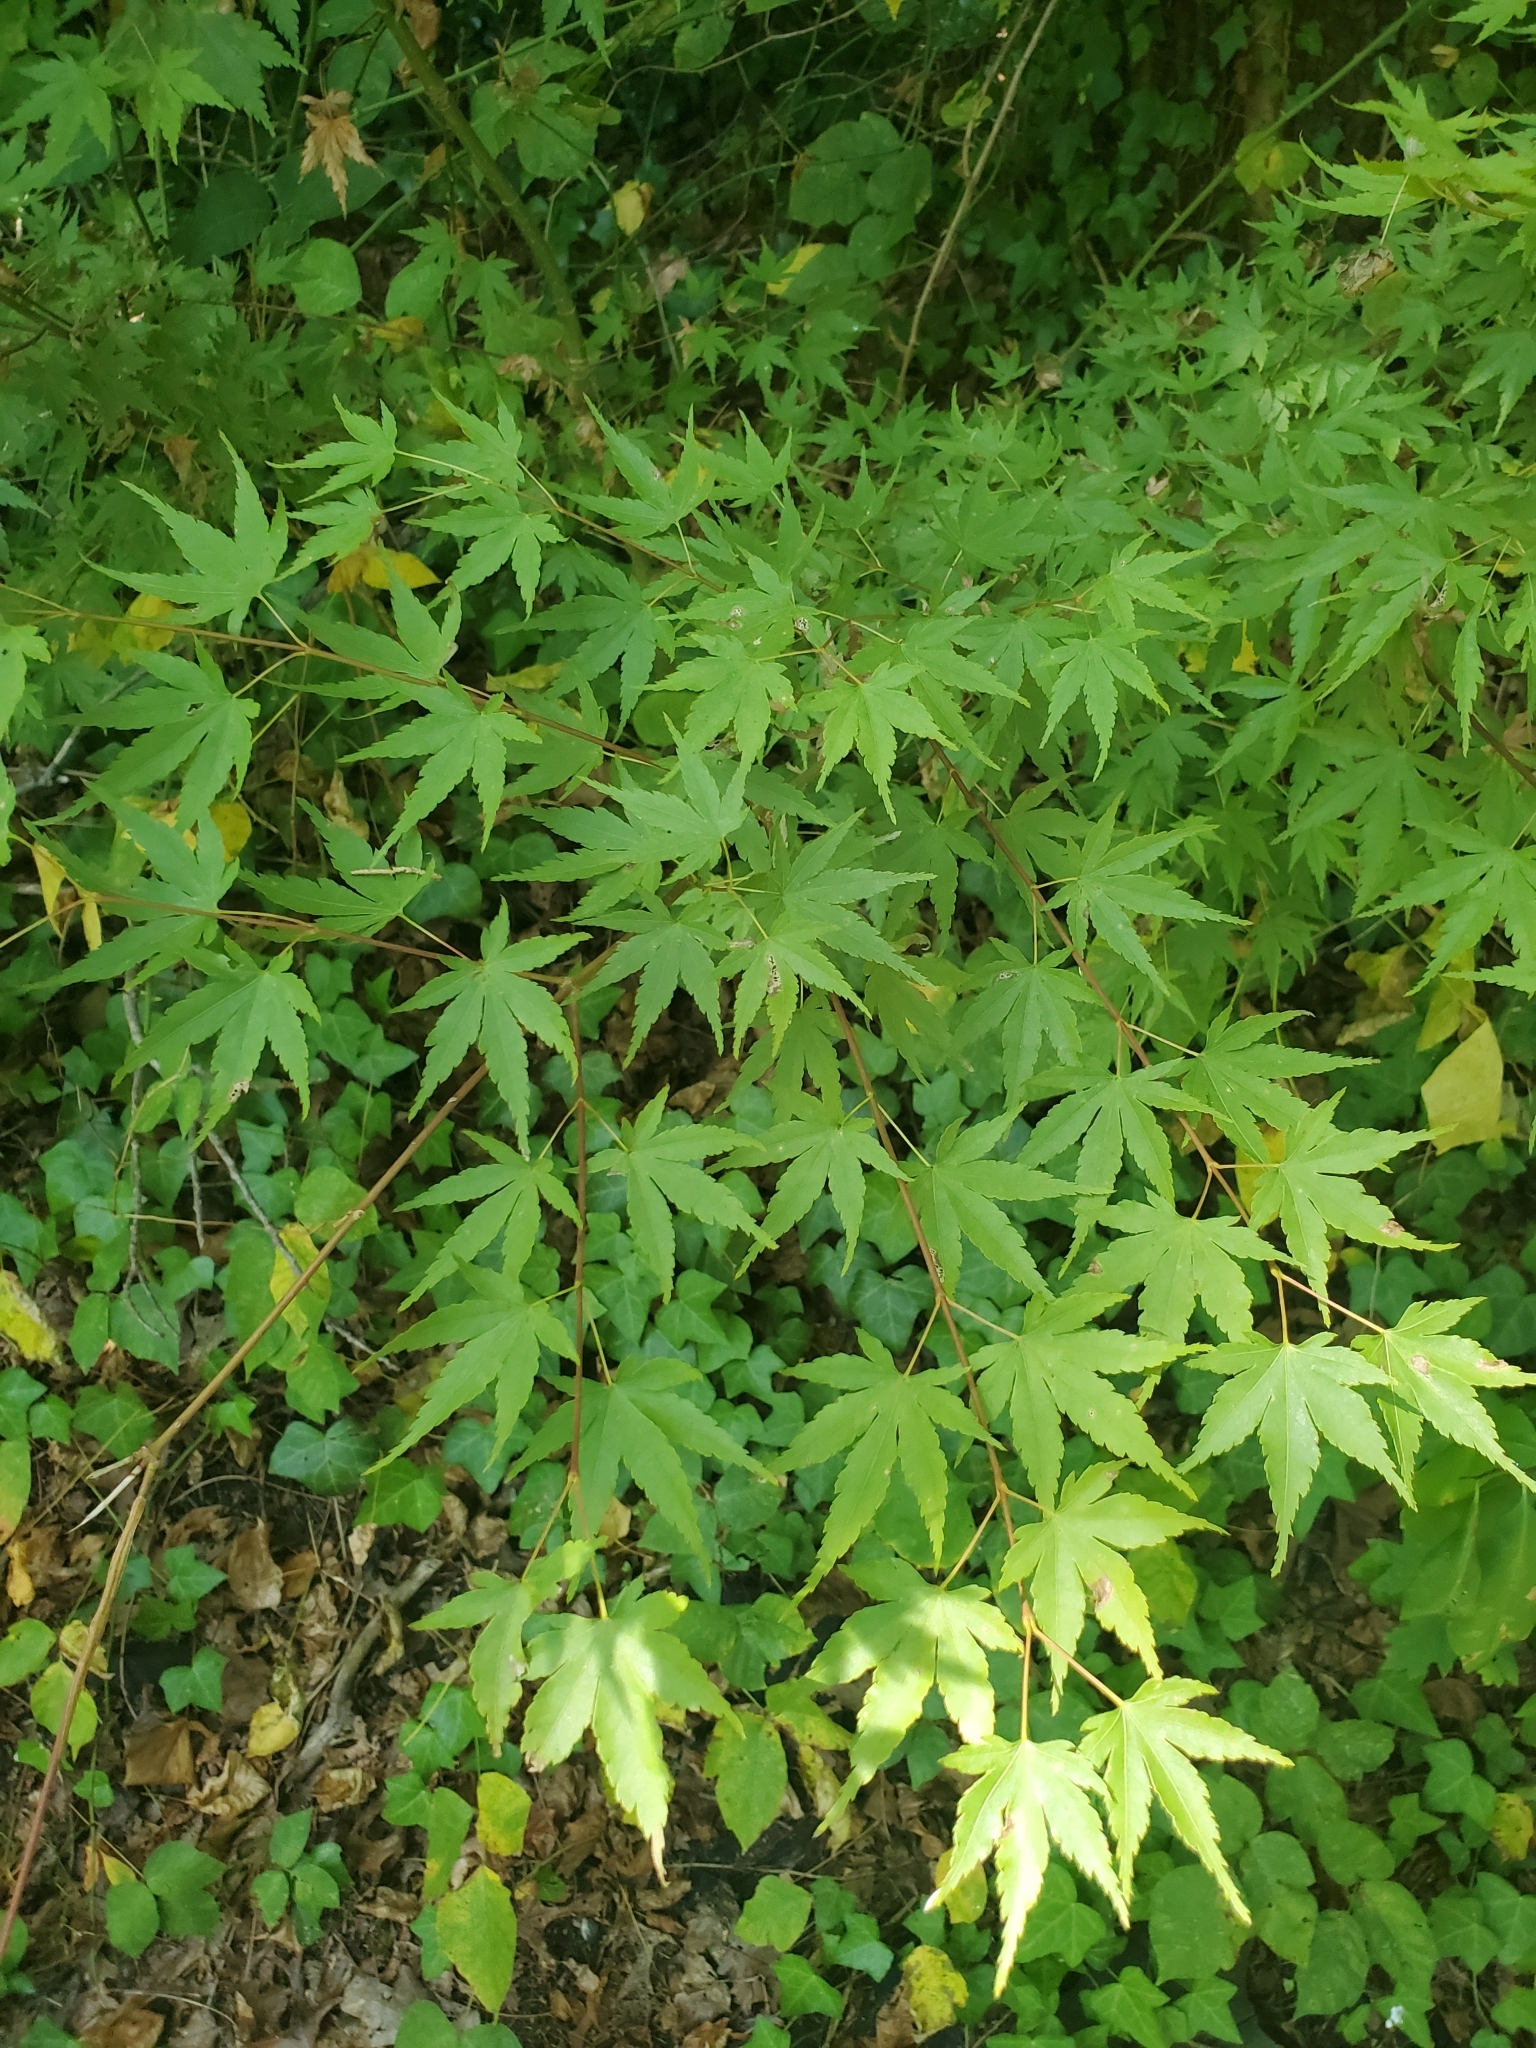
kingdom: Plantae
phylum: Tracheophyta
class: Magnoliopsida
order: Sapindales
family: Sapindaceae
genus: Acer
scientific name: Acer palmatum
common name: Japanese maple
